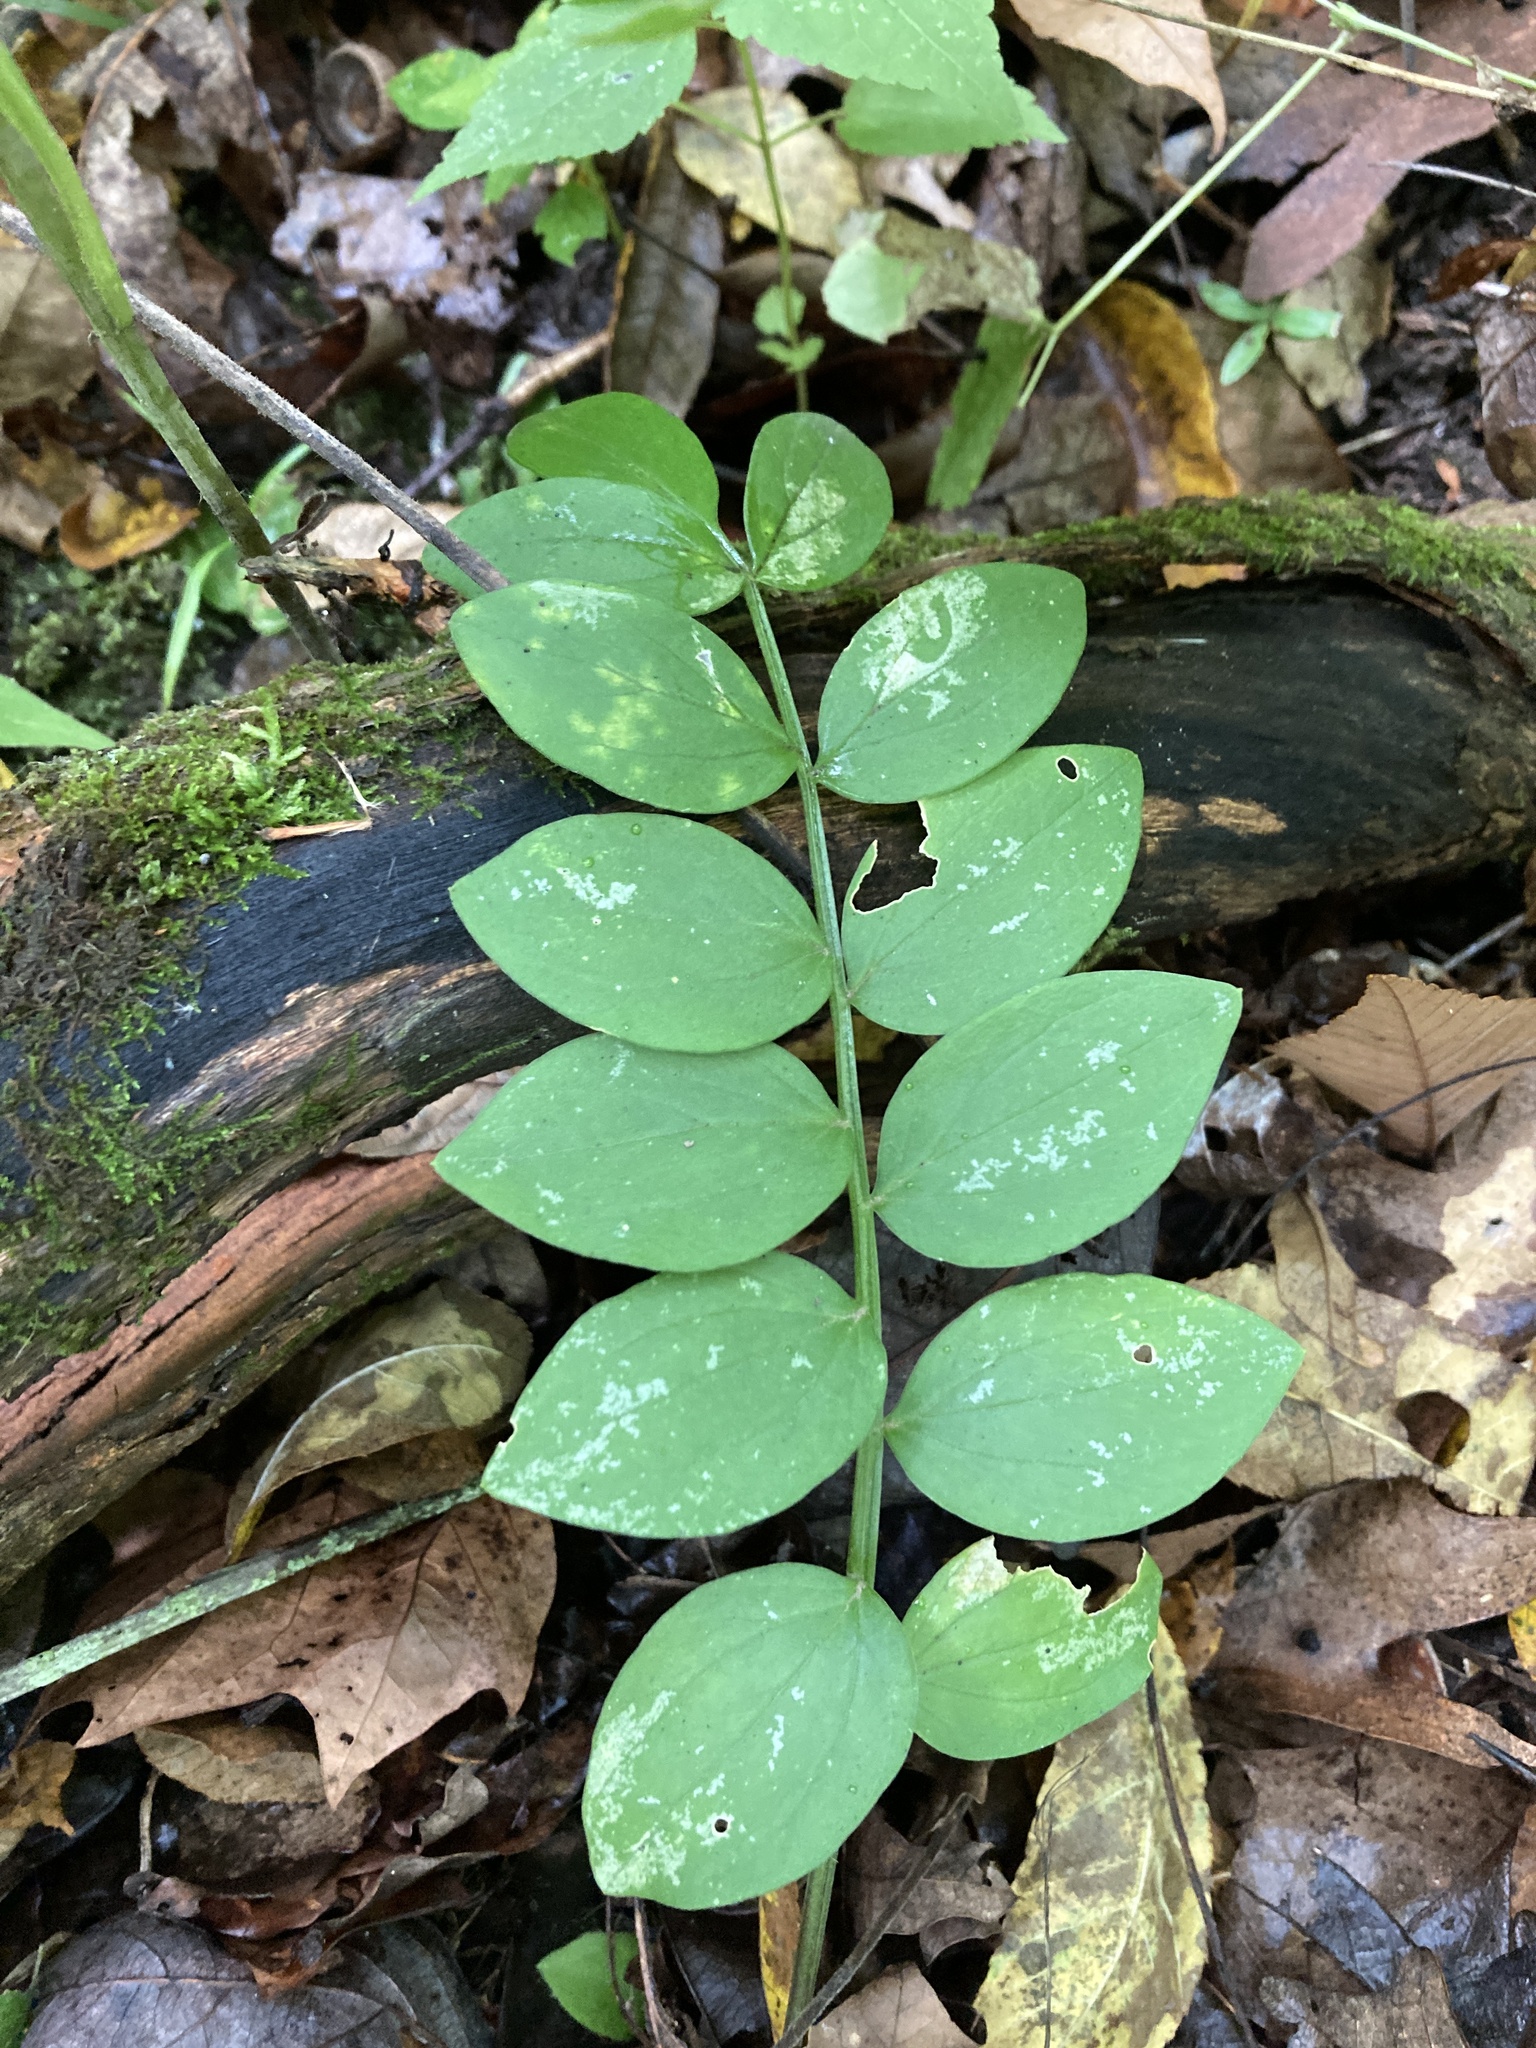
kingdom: Plantae
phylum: Tracheophyta
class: Magnoliopsida
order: Ericales
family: Polemoniaceae
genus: Polemonium
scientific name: Polemonium reptans
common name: Creeping jacob's-ladder
